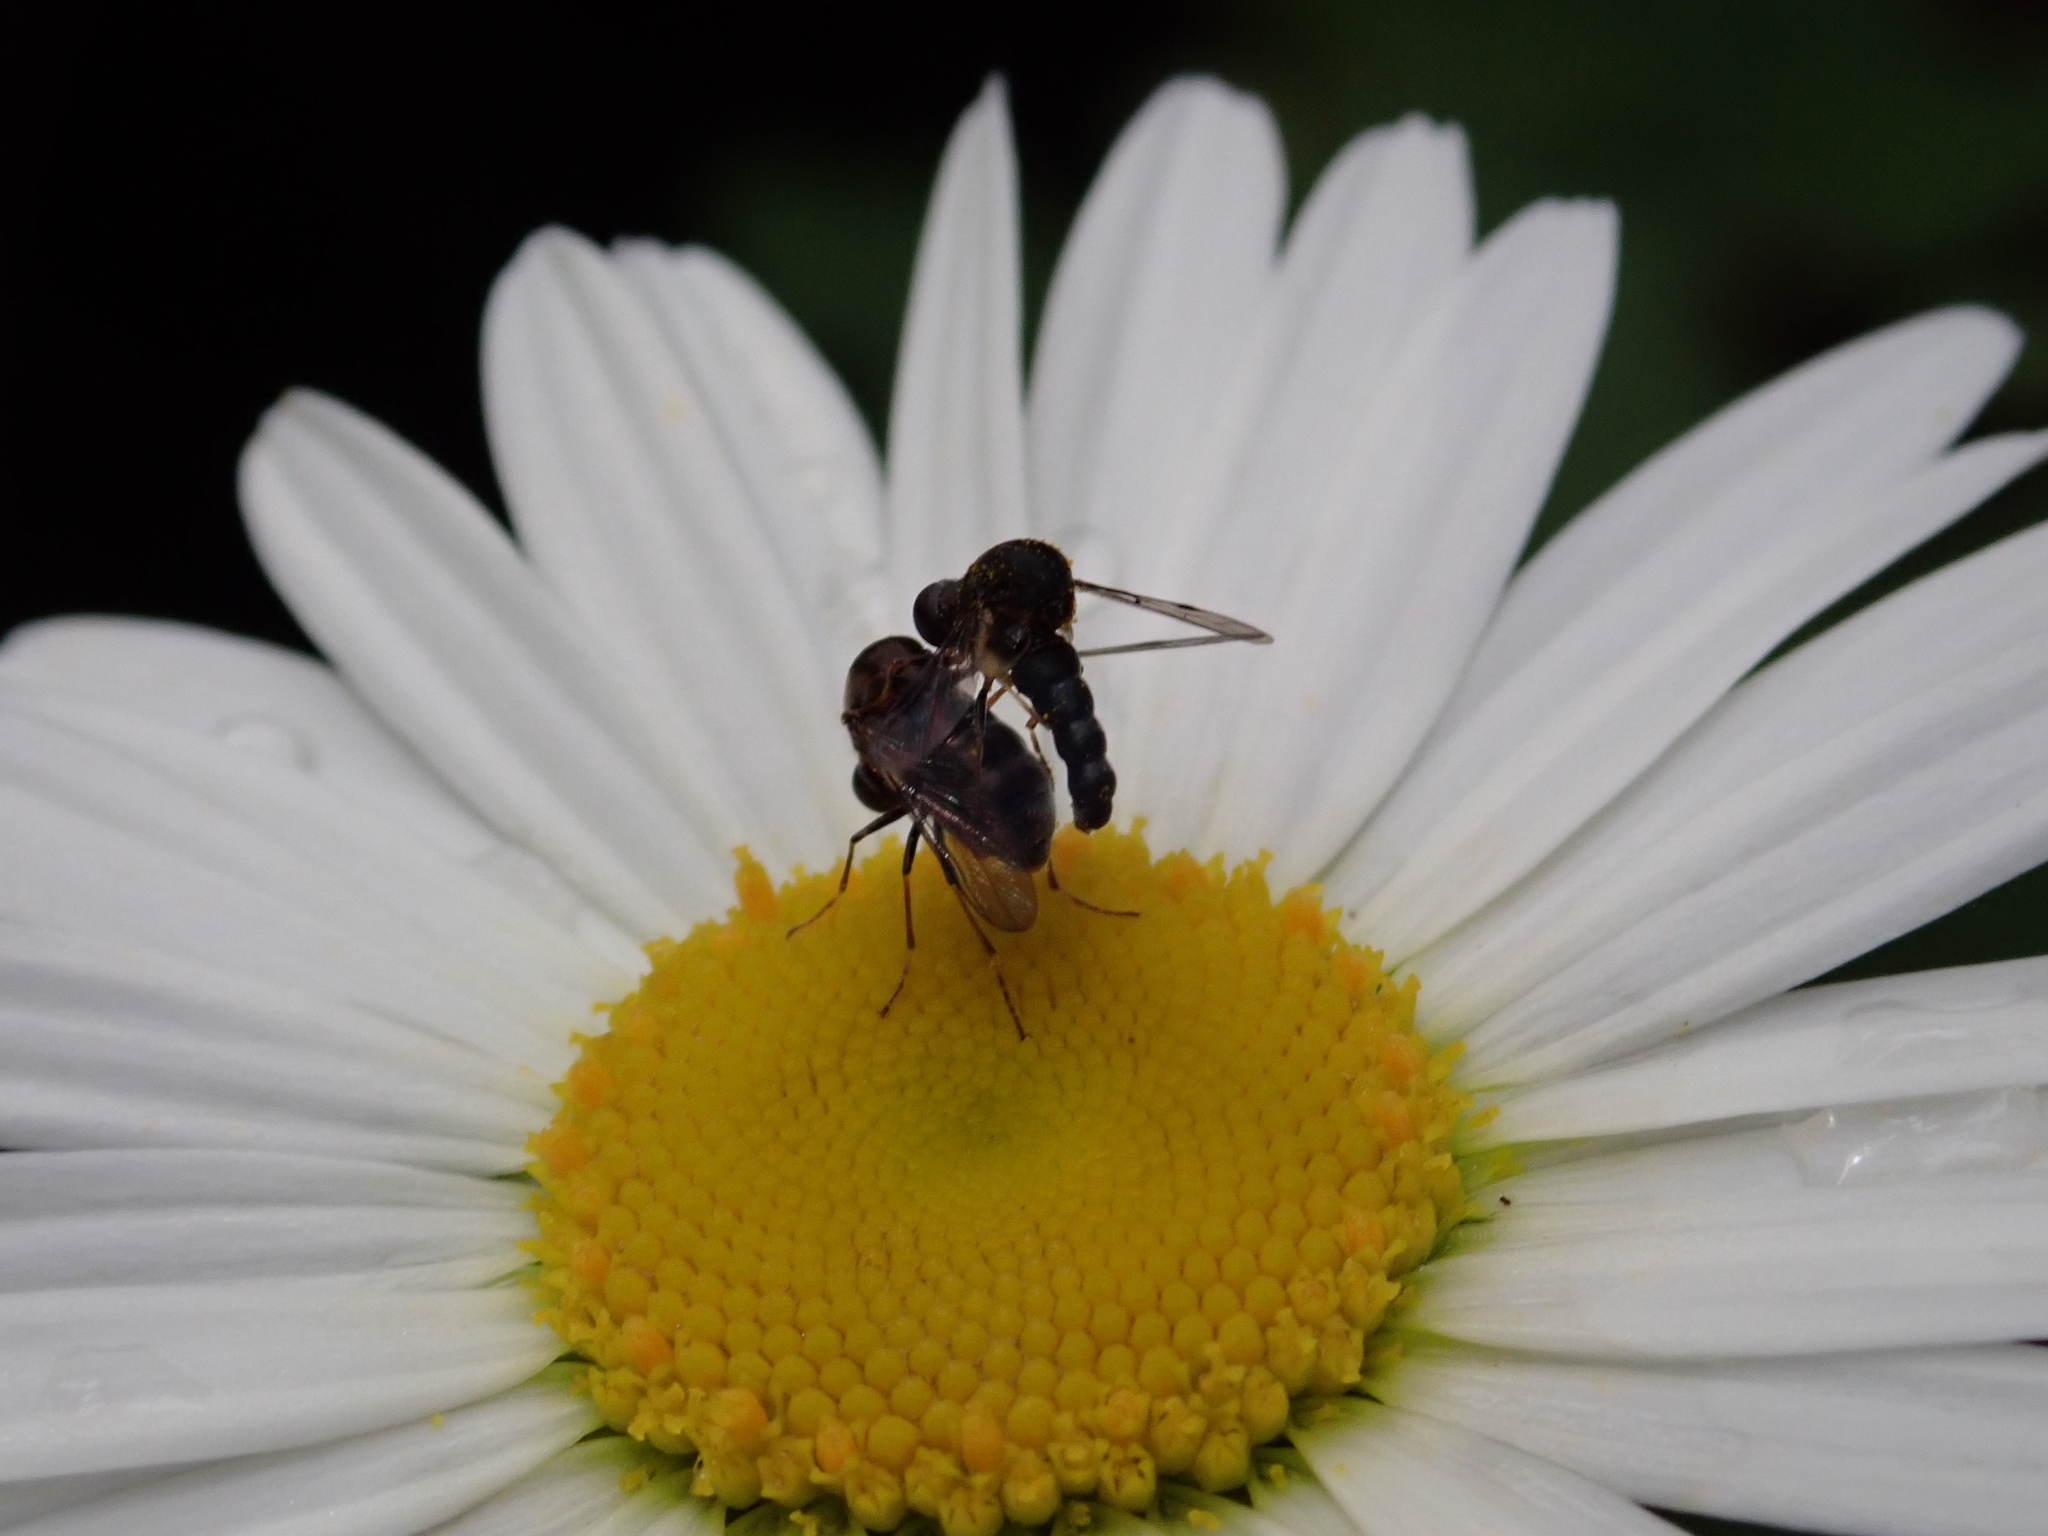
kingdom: Animalia
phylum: Arthropoda
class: Insecta
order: Diptera
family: Acroceridae
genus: Helle
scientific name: Helle longirostris
